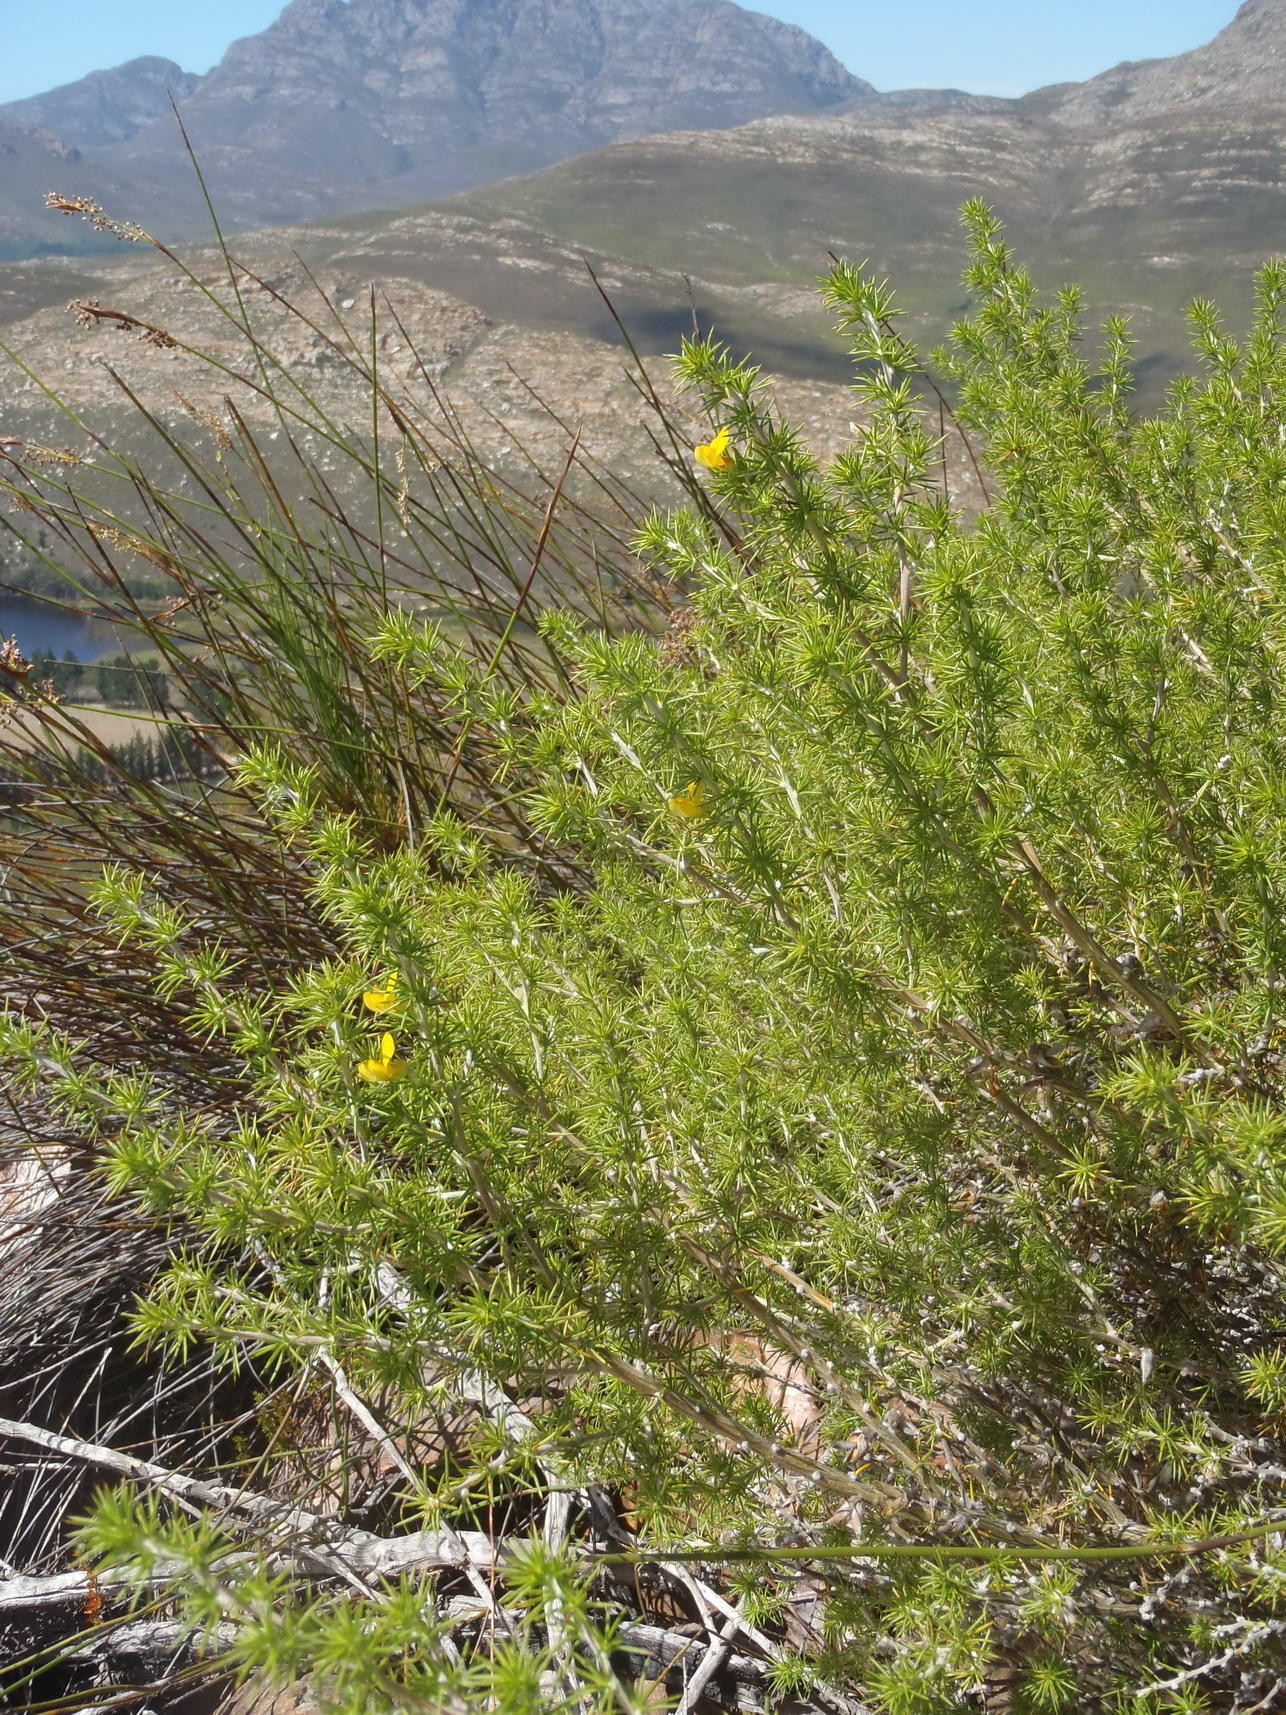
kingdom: Plantae
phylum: Tracheophyta
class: Magnoliopsida
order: Fabales
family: Fabaceae
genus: Aspalathus
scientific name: Aspalathus hirta
